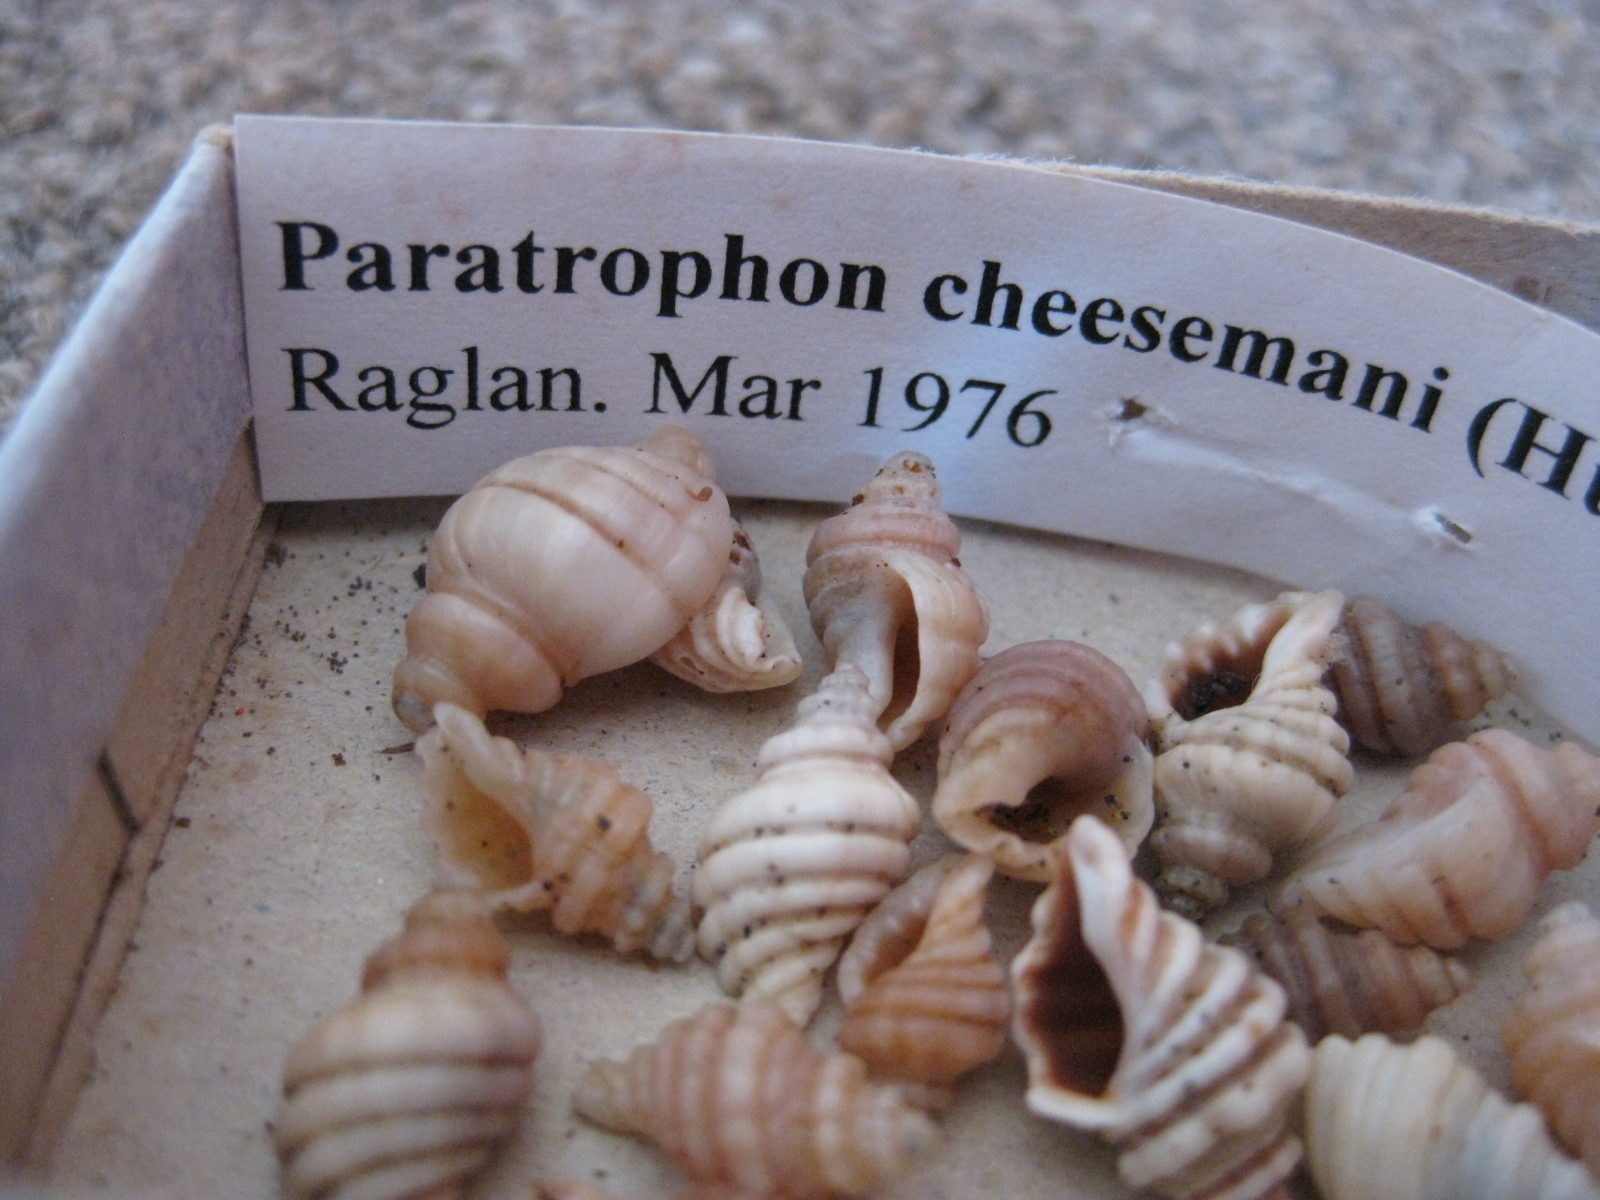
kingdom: Animalia
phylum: Mollusca
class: Gastropoda
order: Neogastropoda
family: Muricidae
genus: Paratrophon
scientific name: Paratrophon cheesemani
